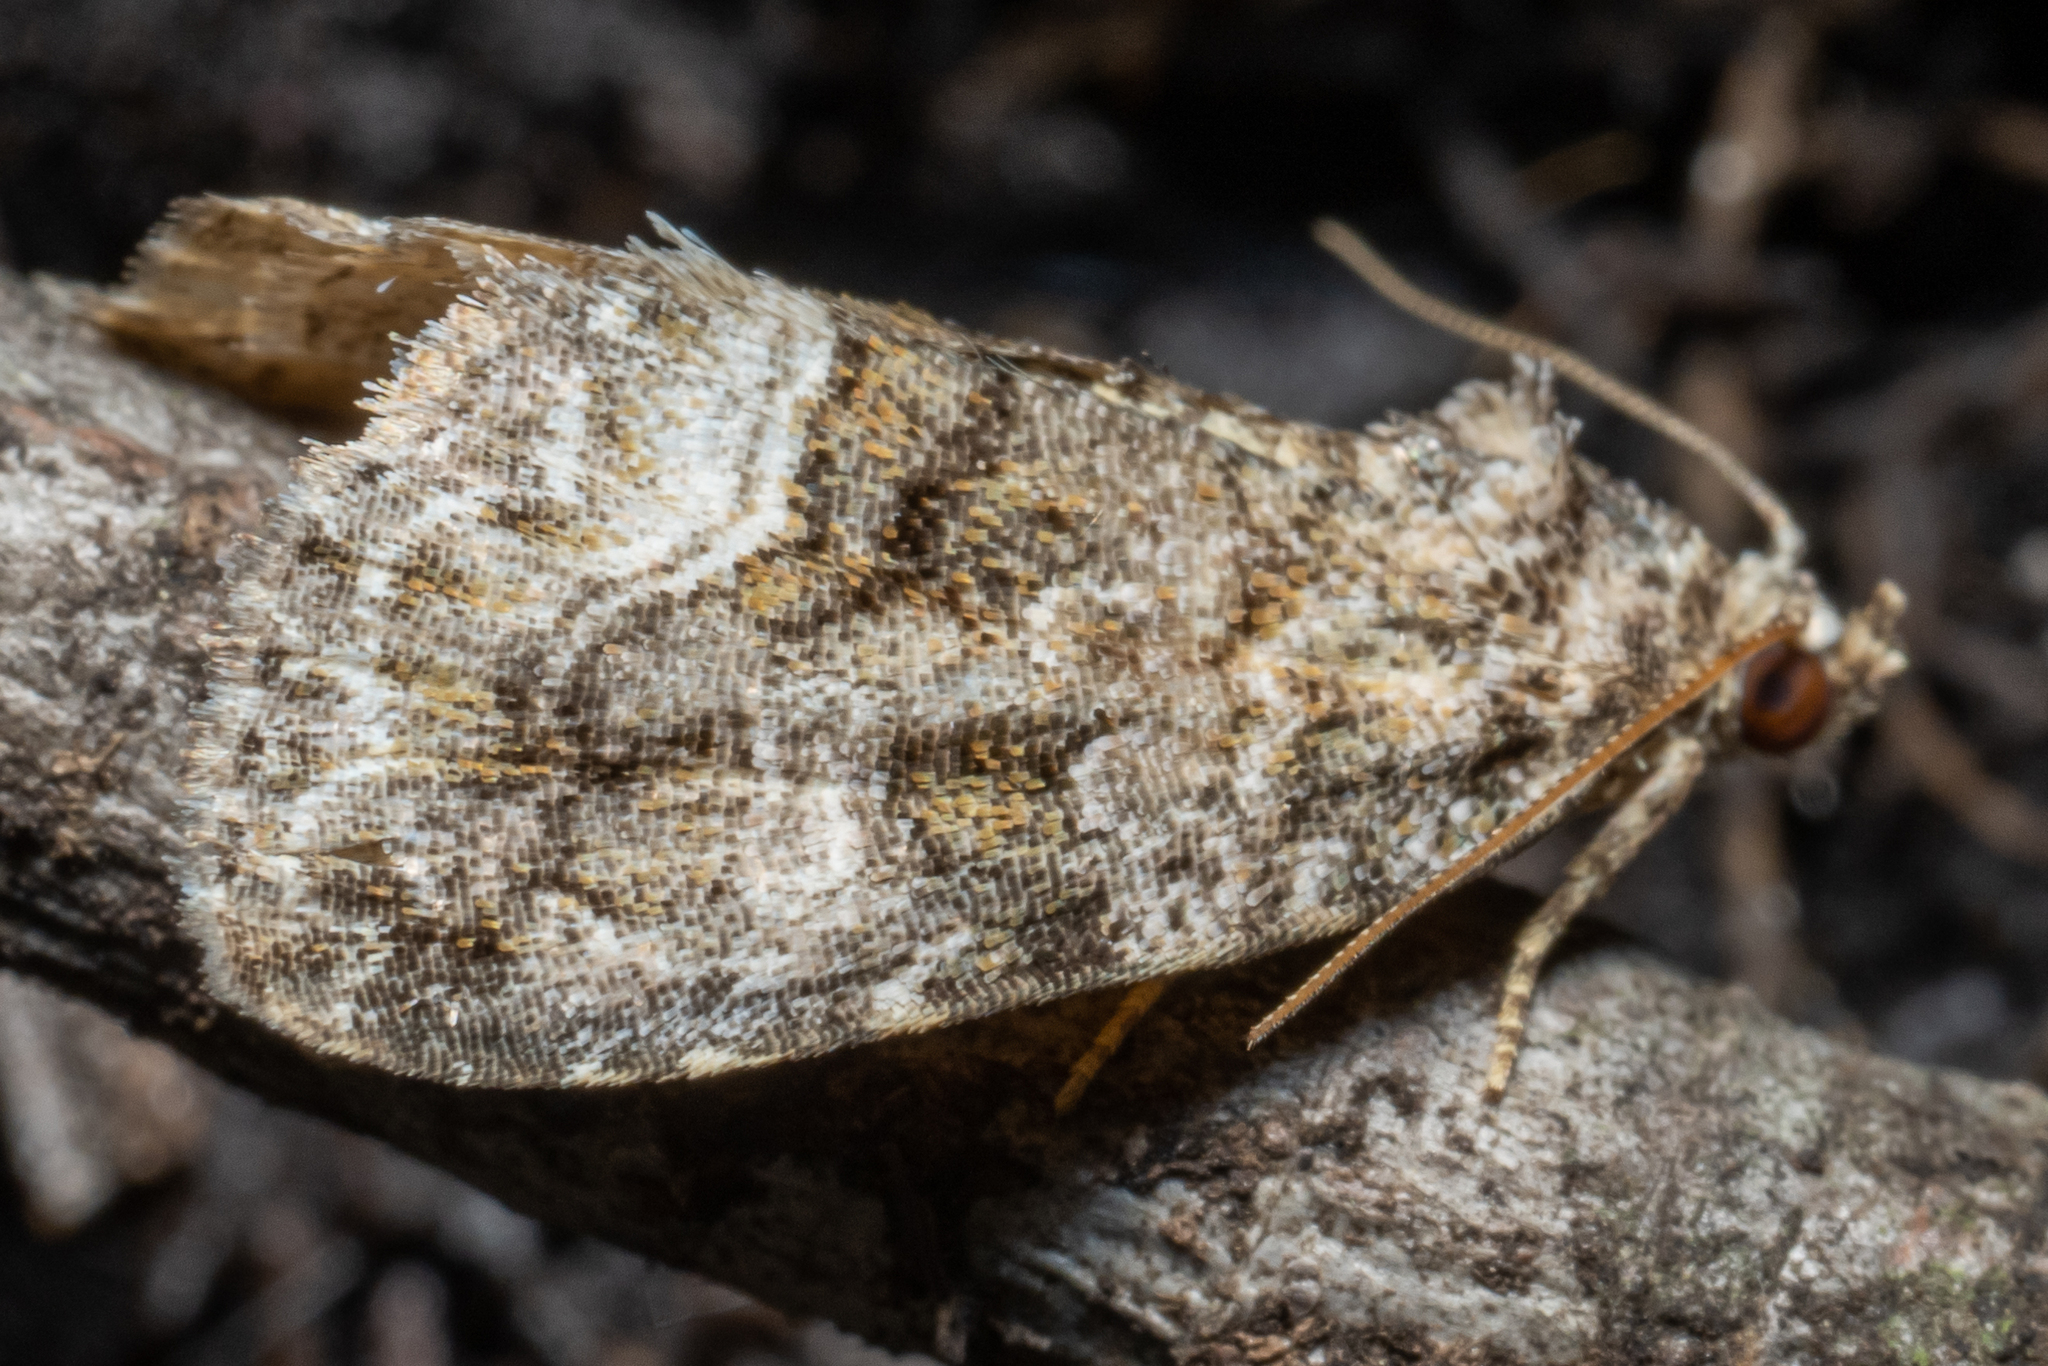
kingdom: Animalia
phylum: Arthropoda
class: Insecta
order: Lepidoptera
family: Noctuidae
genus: Protodeltote
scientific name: Protodeltote muscosula
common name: Large mossy glyph
